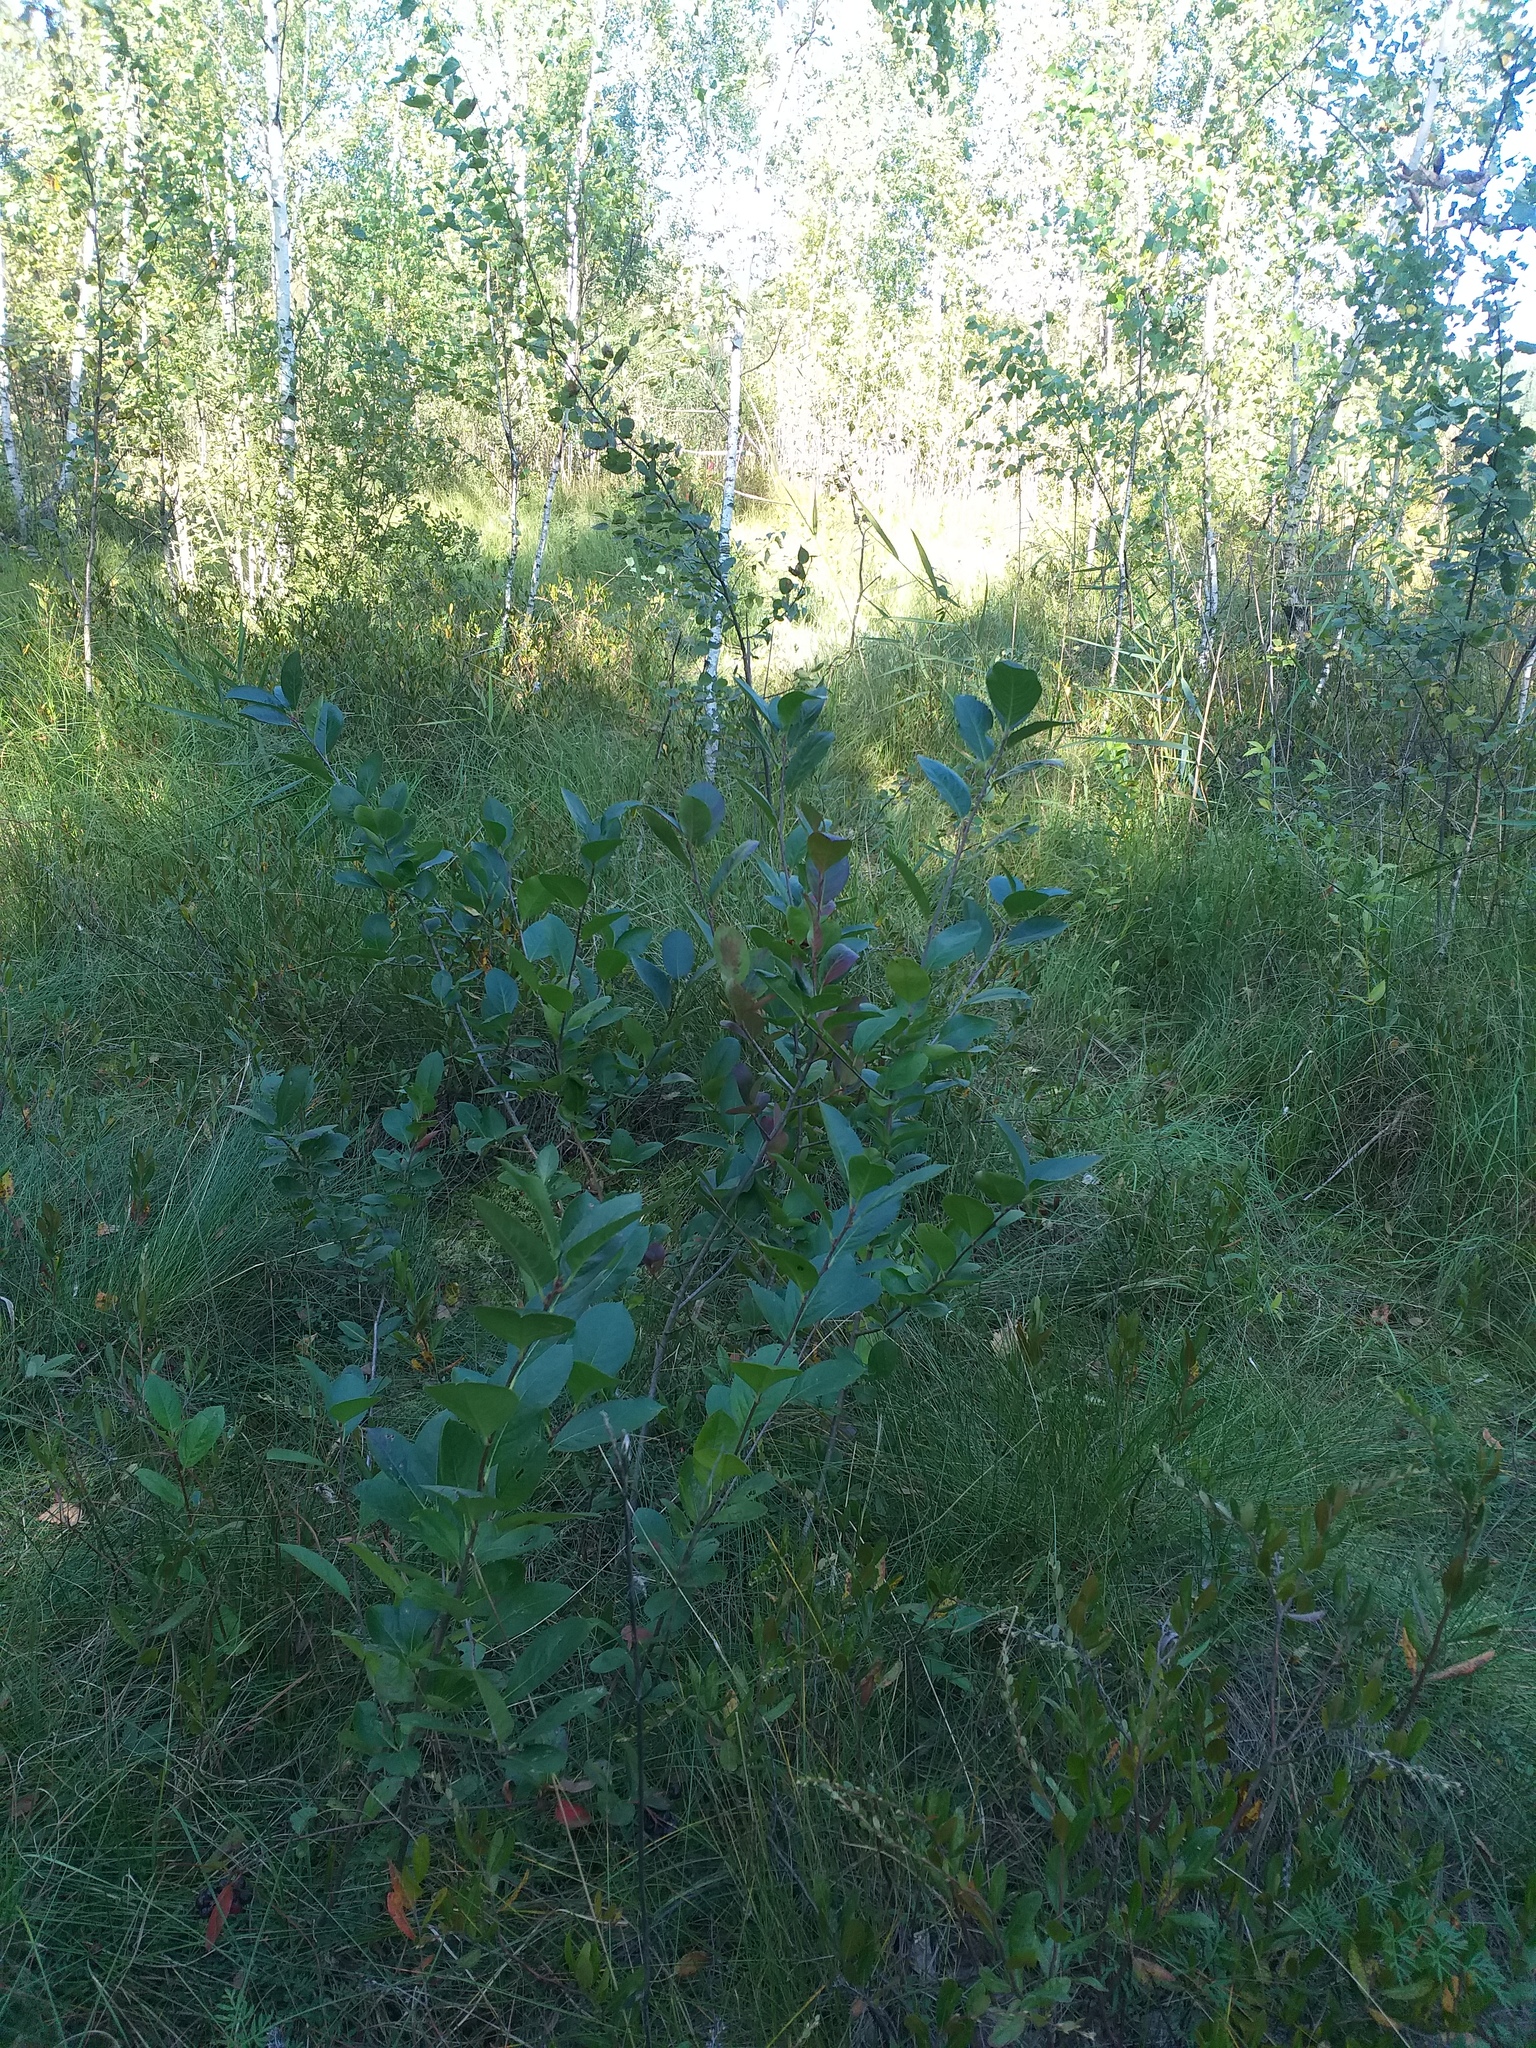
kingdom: Plantae
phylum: Tracheophyta
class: Magnoliopsida
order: Rosales
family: Rosaceae
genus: Sorbaronia
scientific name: Sorbaronia arsenii
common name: Arsène's mountain-ash
